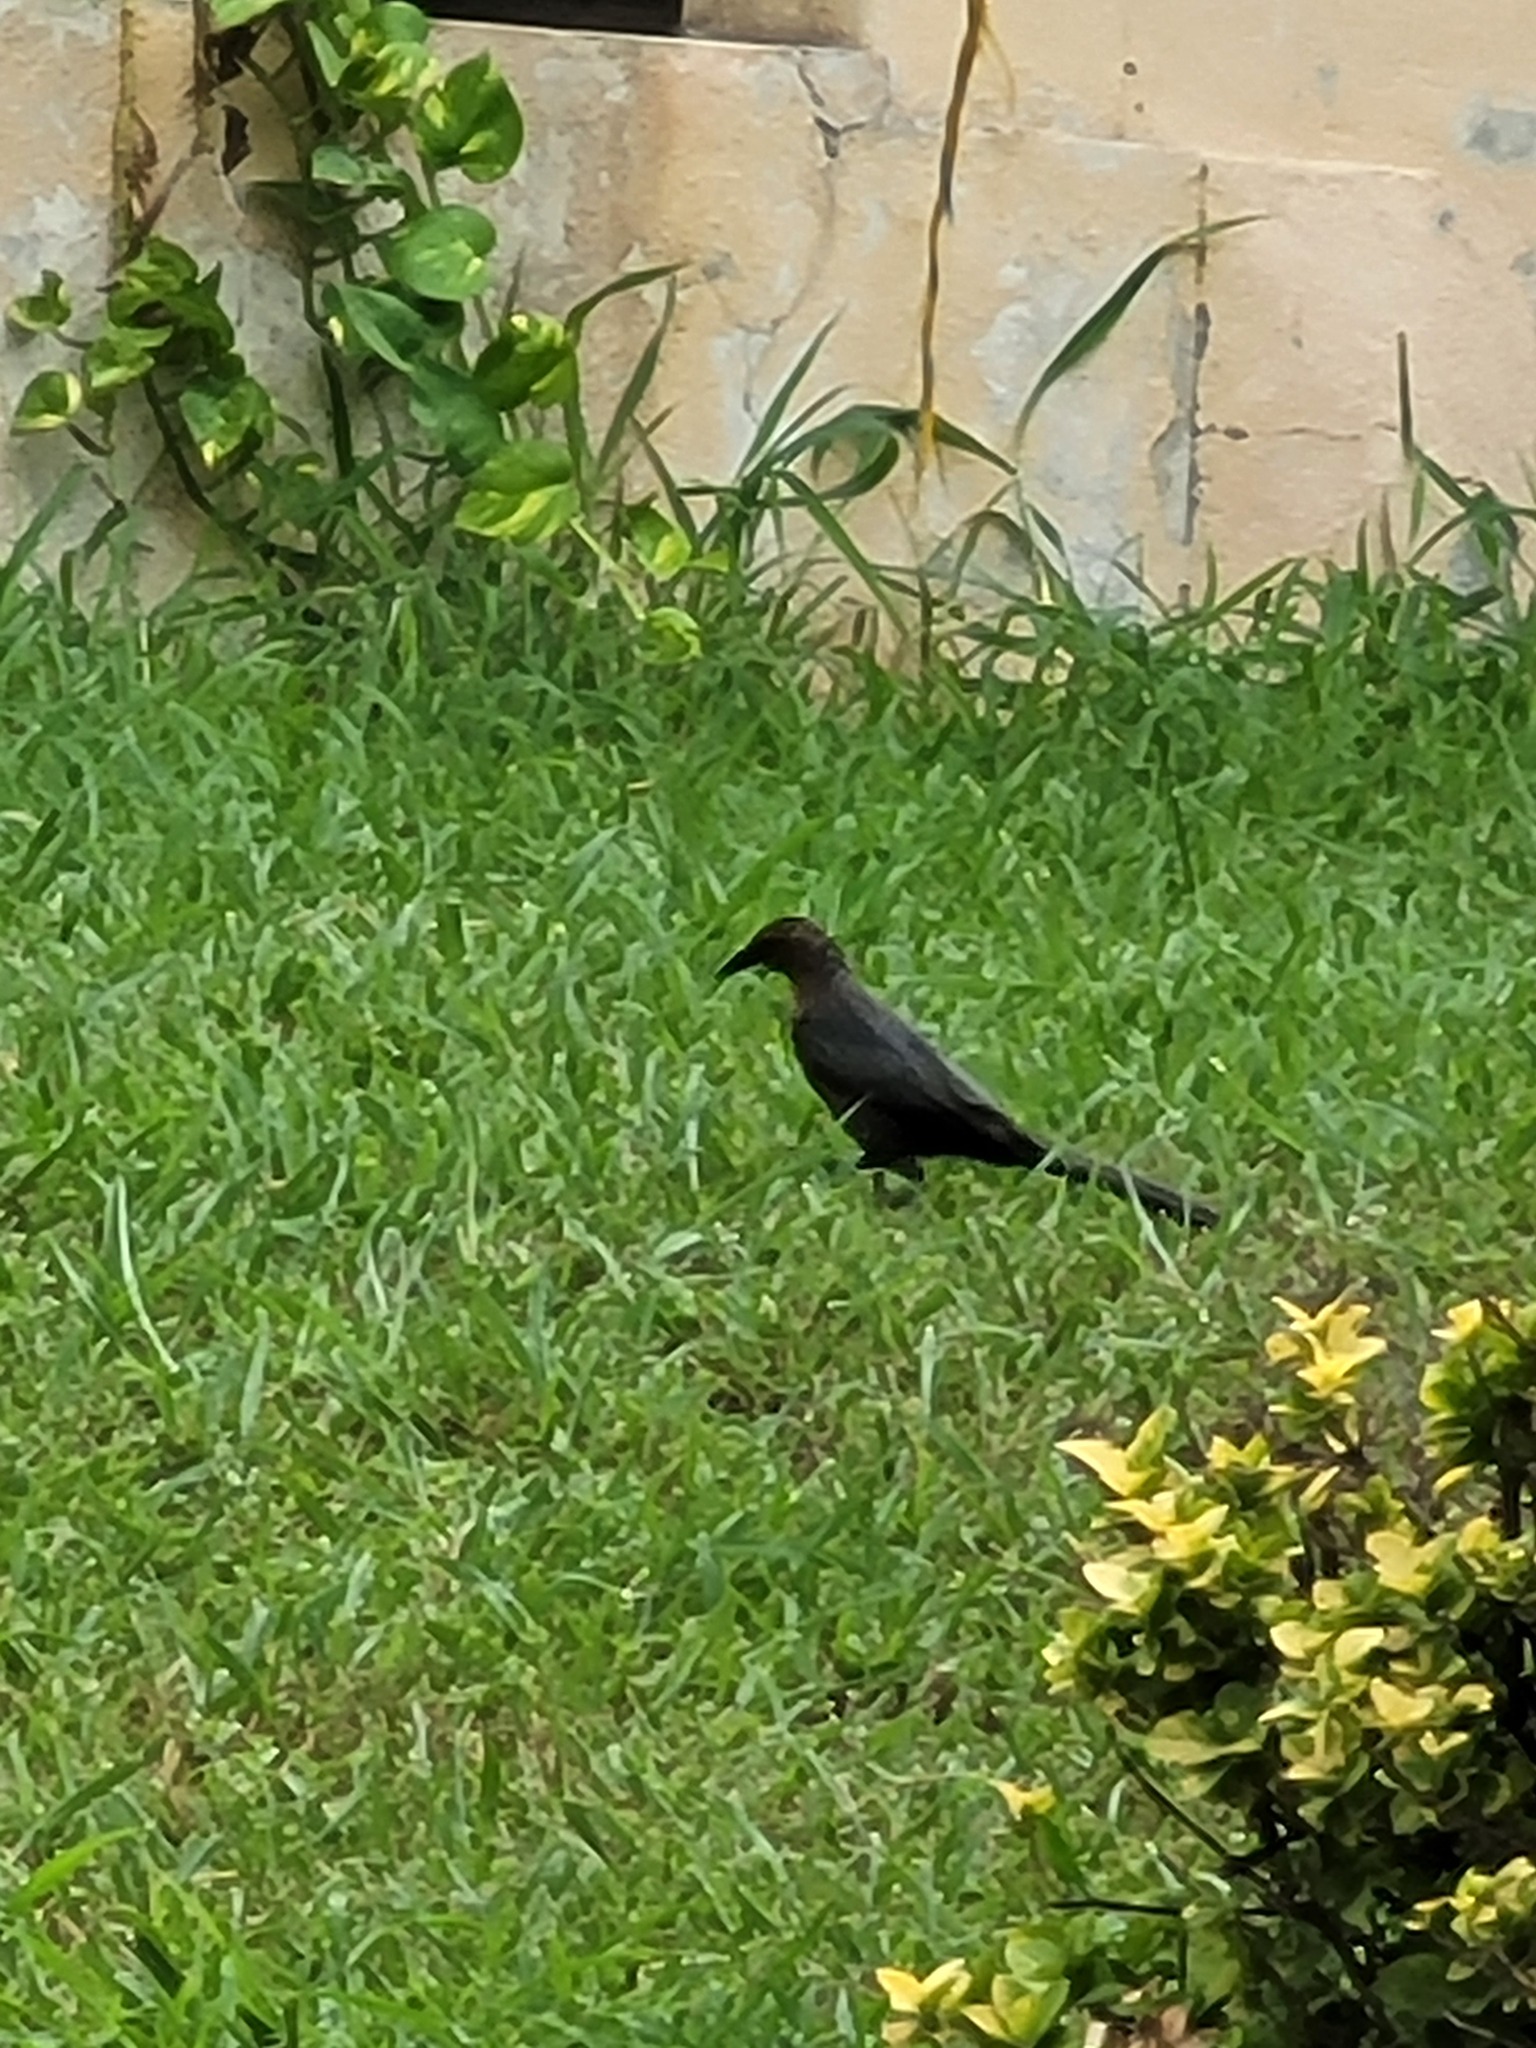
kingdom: Animalia
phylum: Chordata
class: Aves
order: Passeriformes
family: Icteridae
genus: Quiscalus
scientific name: Quiscalus mexicanus
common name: Great-tailed grackle
